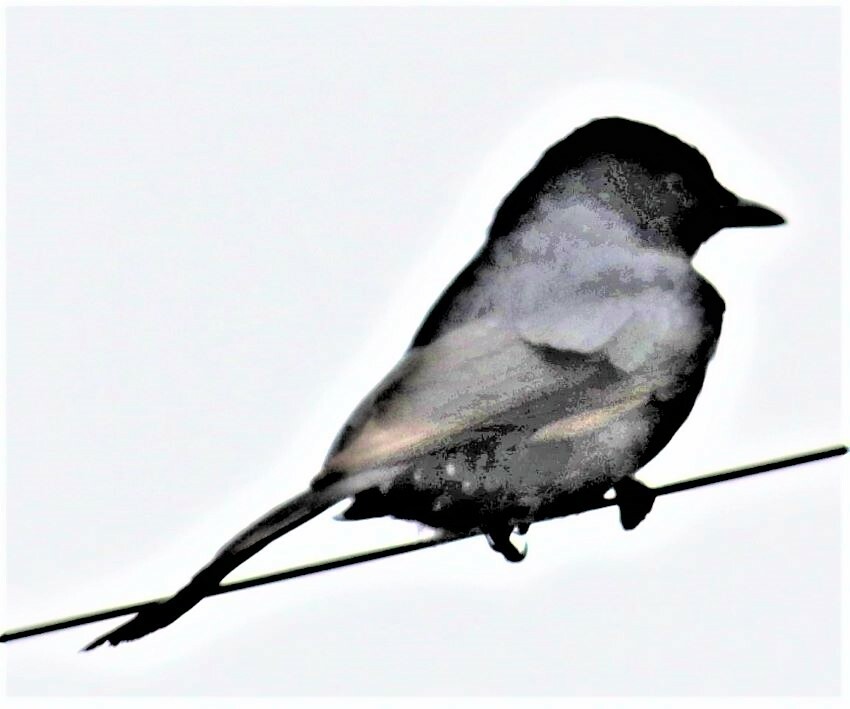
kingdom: Animalia
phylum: Chordata
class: Aves
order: Passeriformes
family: Dicruridae
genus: Dicrurus
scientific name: Dicrurus adsimilis
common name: Fork-tailed drongo
